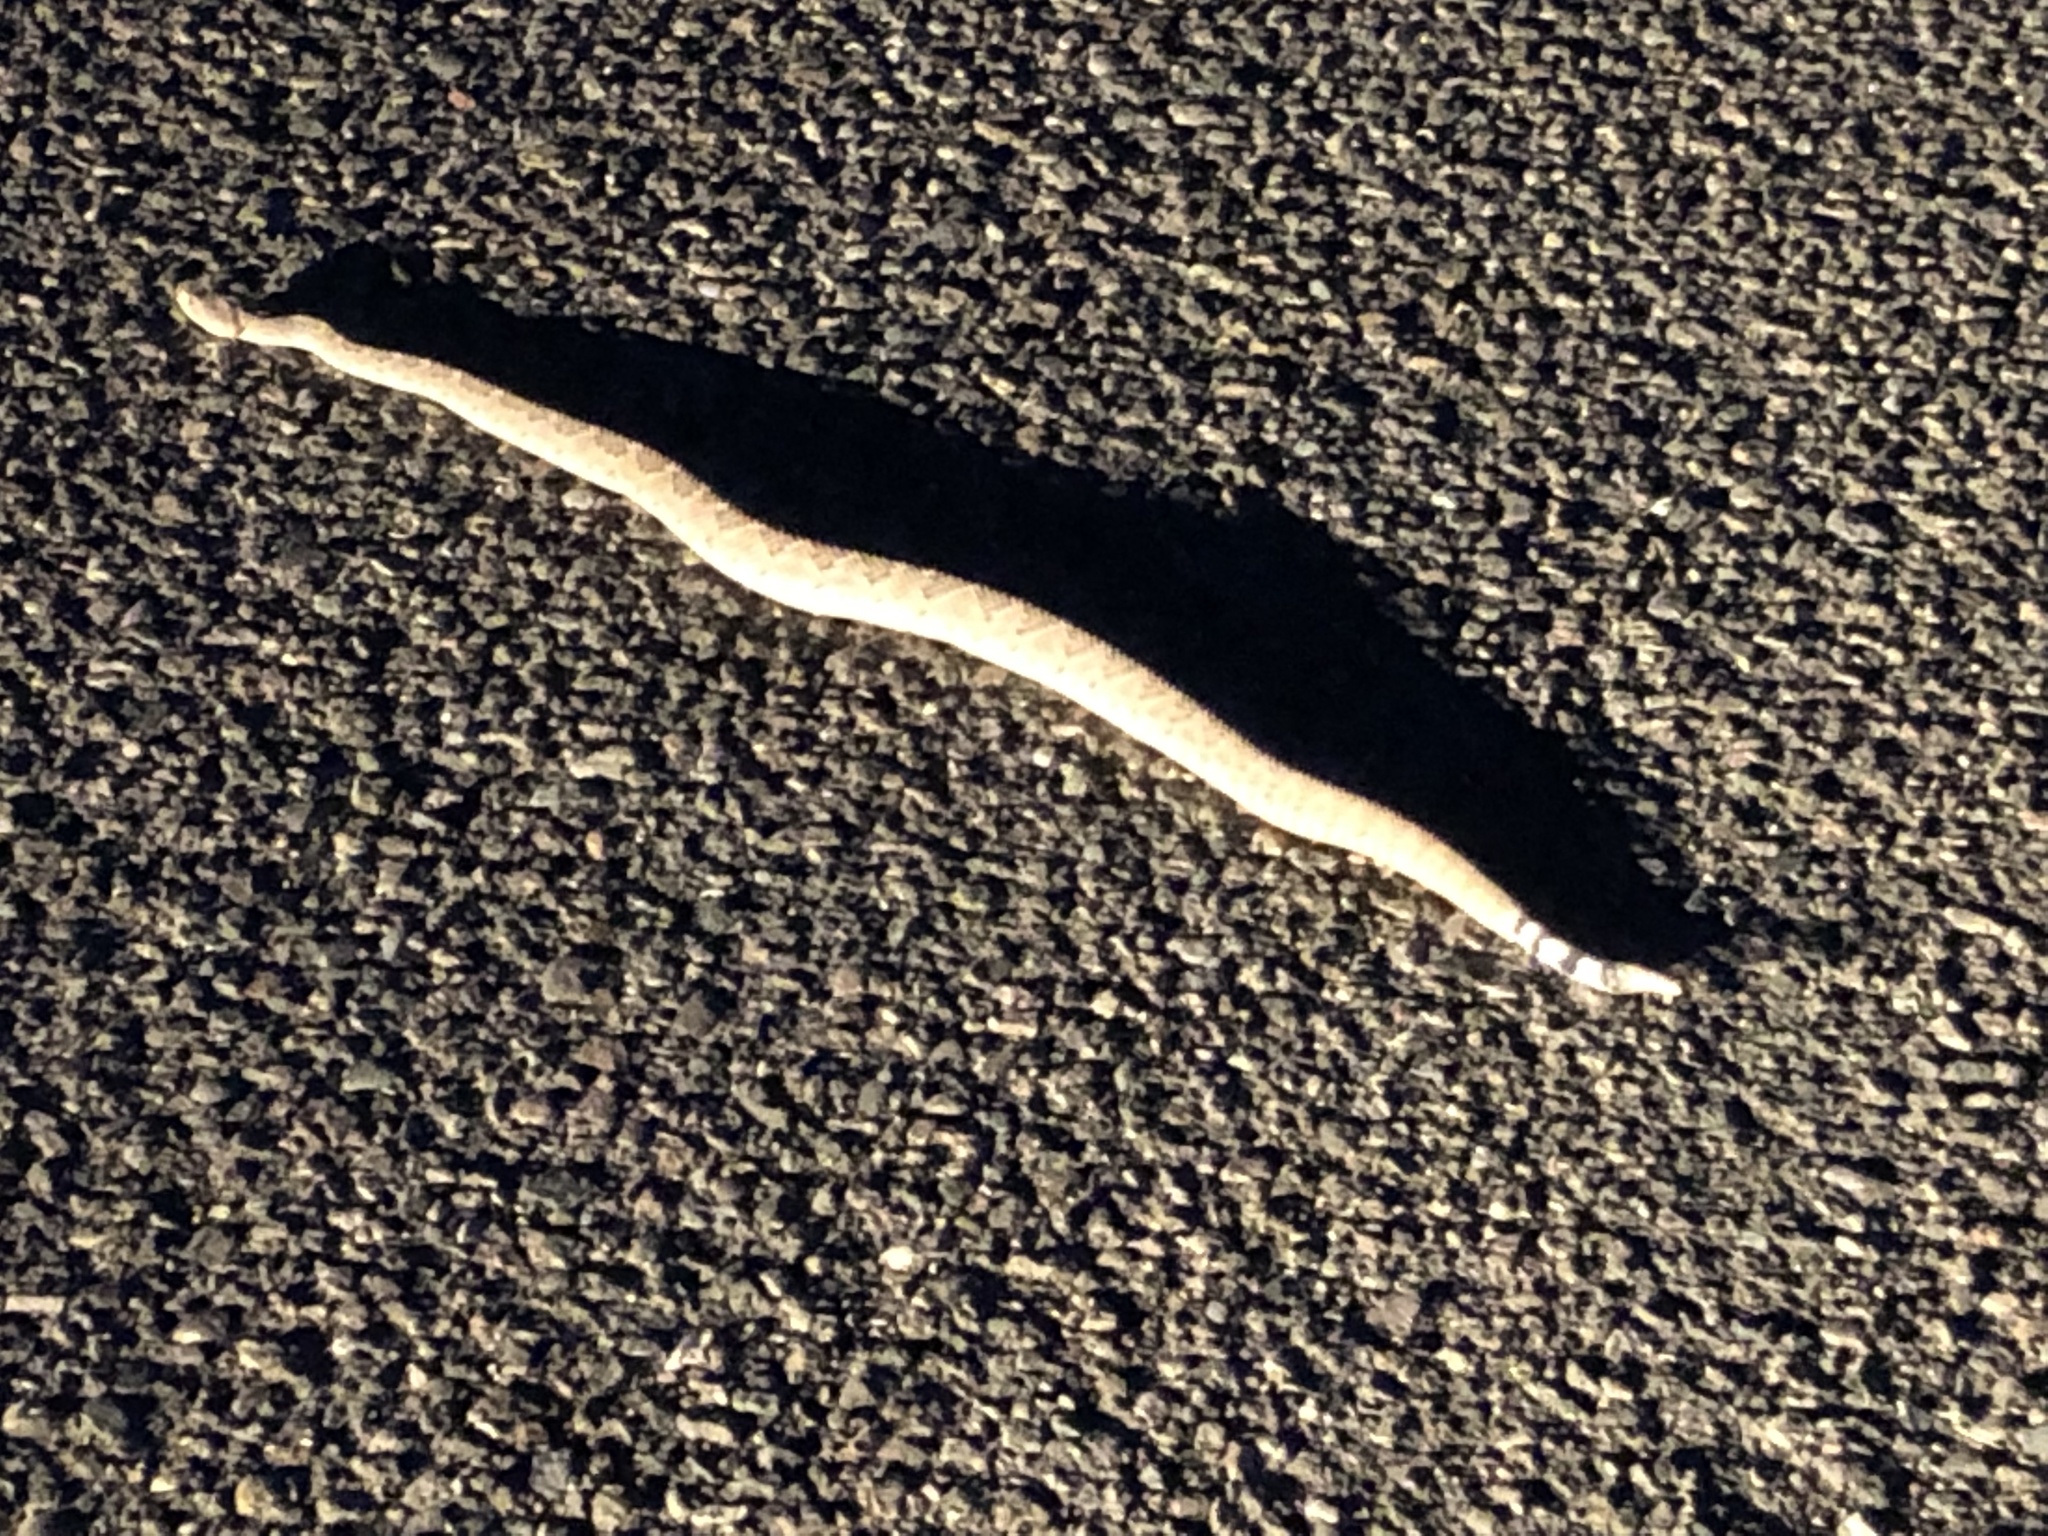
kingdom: Animalia
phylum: Chordata
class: Squamata
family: Viperidae
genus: Crotalus
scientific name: Crotalus atrox
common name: Western diamond-backed rattlesnake
